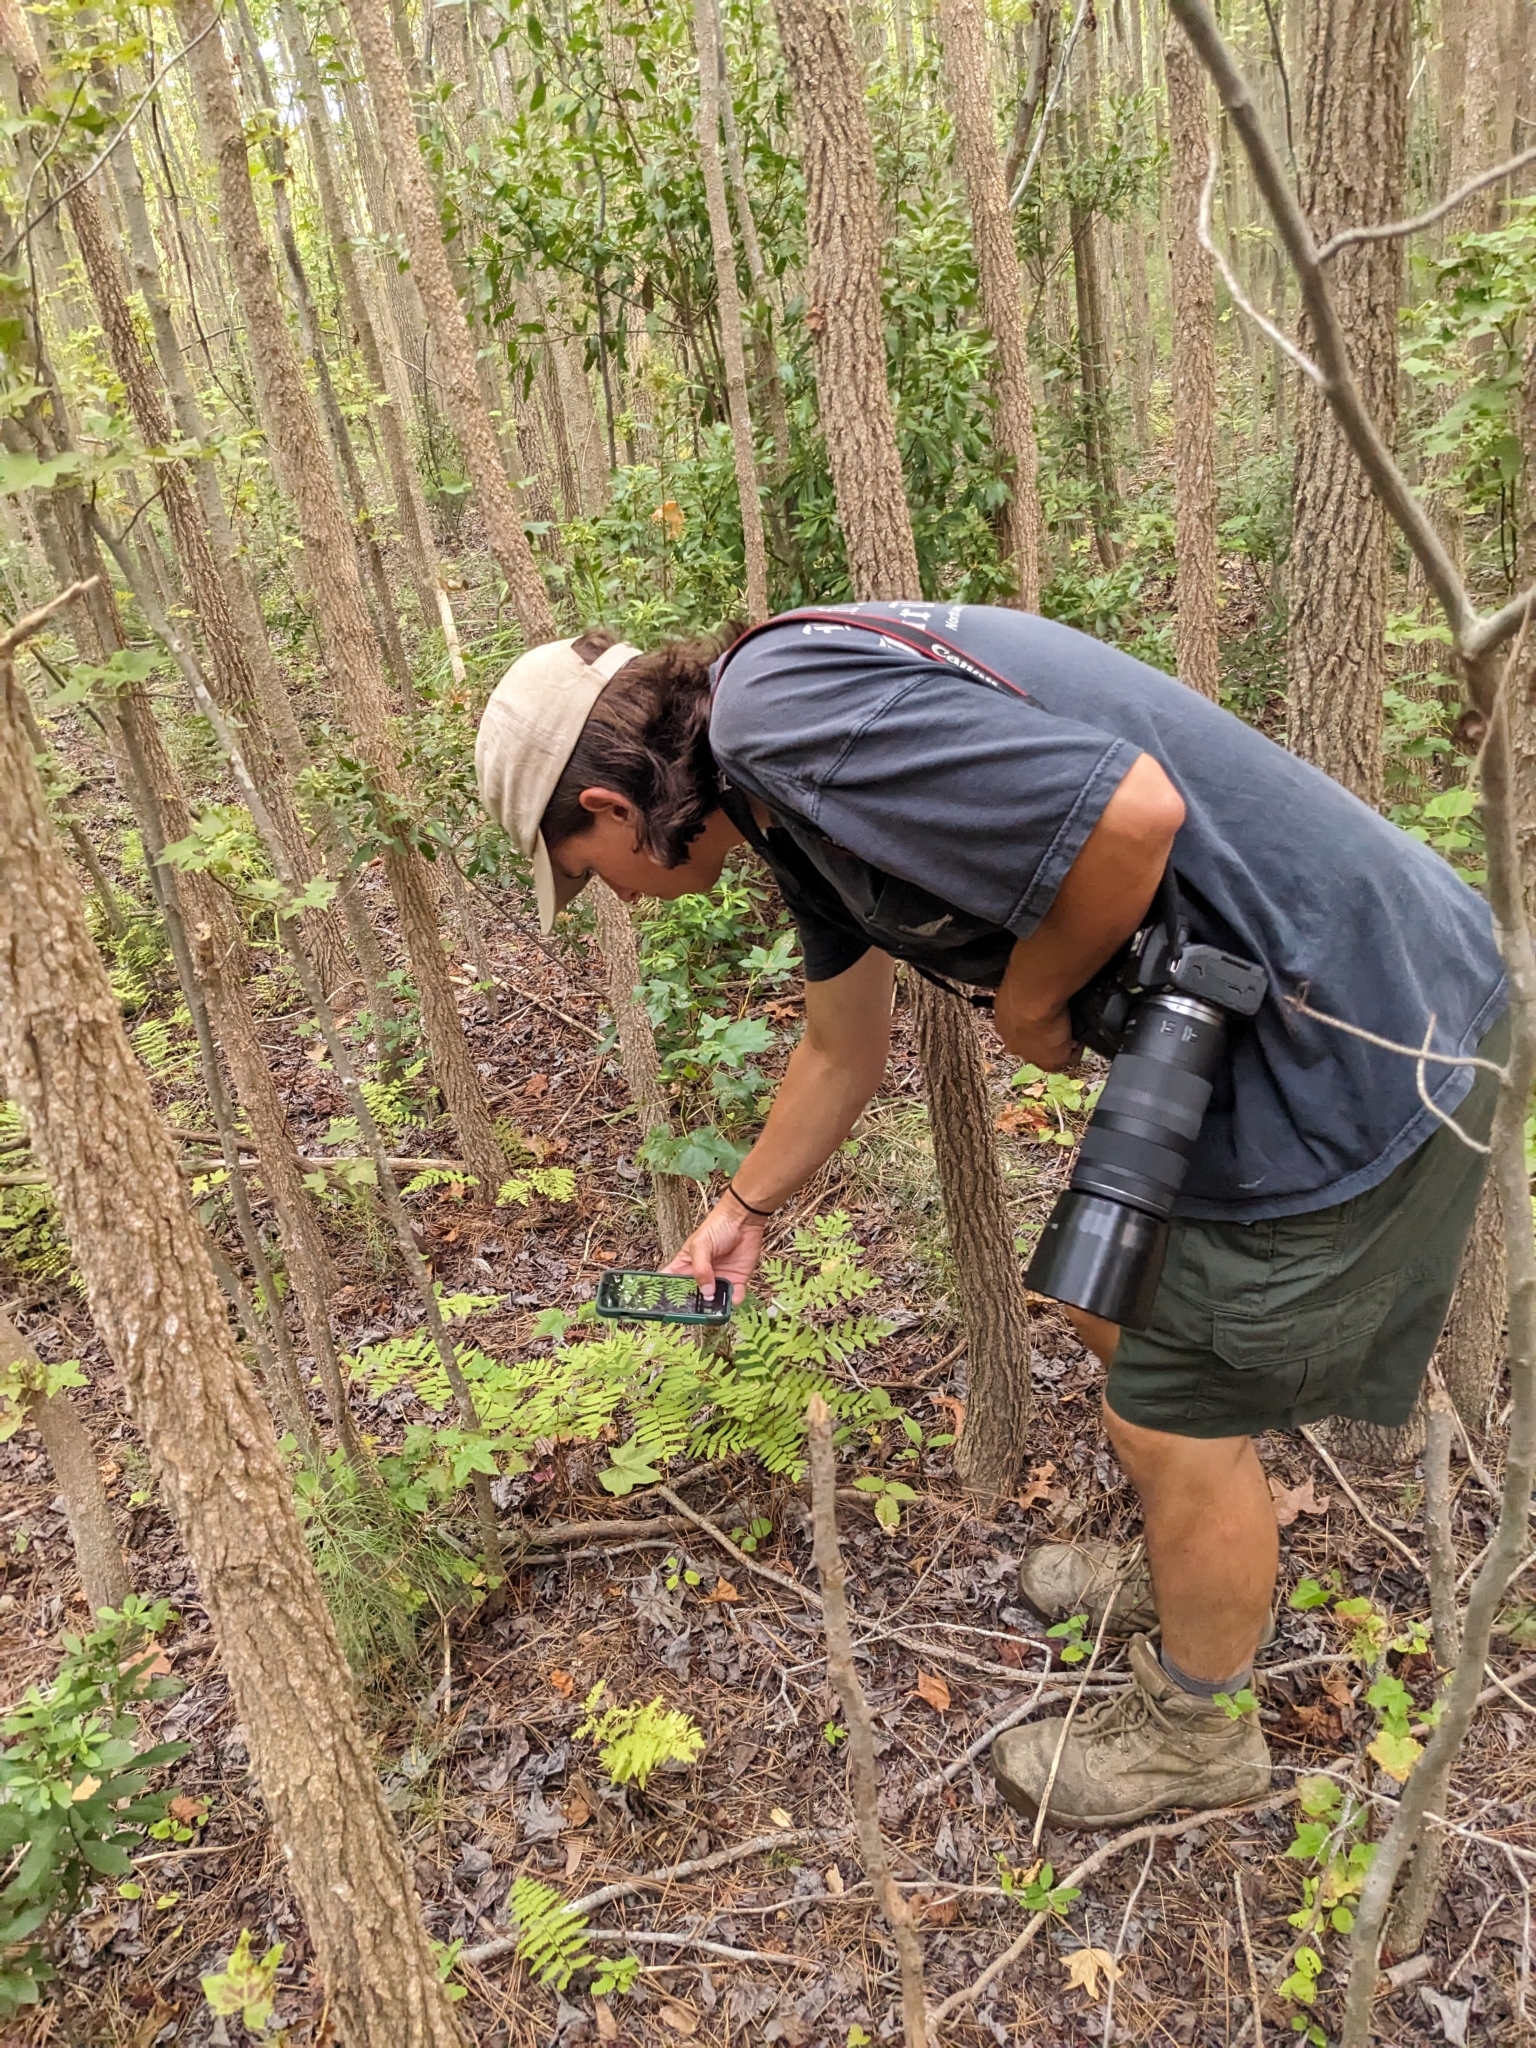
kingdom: Plantae
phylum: Tracheophyta
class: Polypodiopsida
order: Osmundales
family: Osmundaceae
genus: Osmunda
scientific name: Osmunda spectabilis
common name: American royal fern
